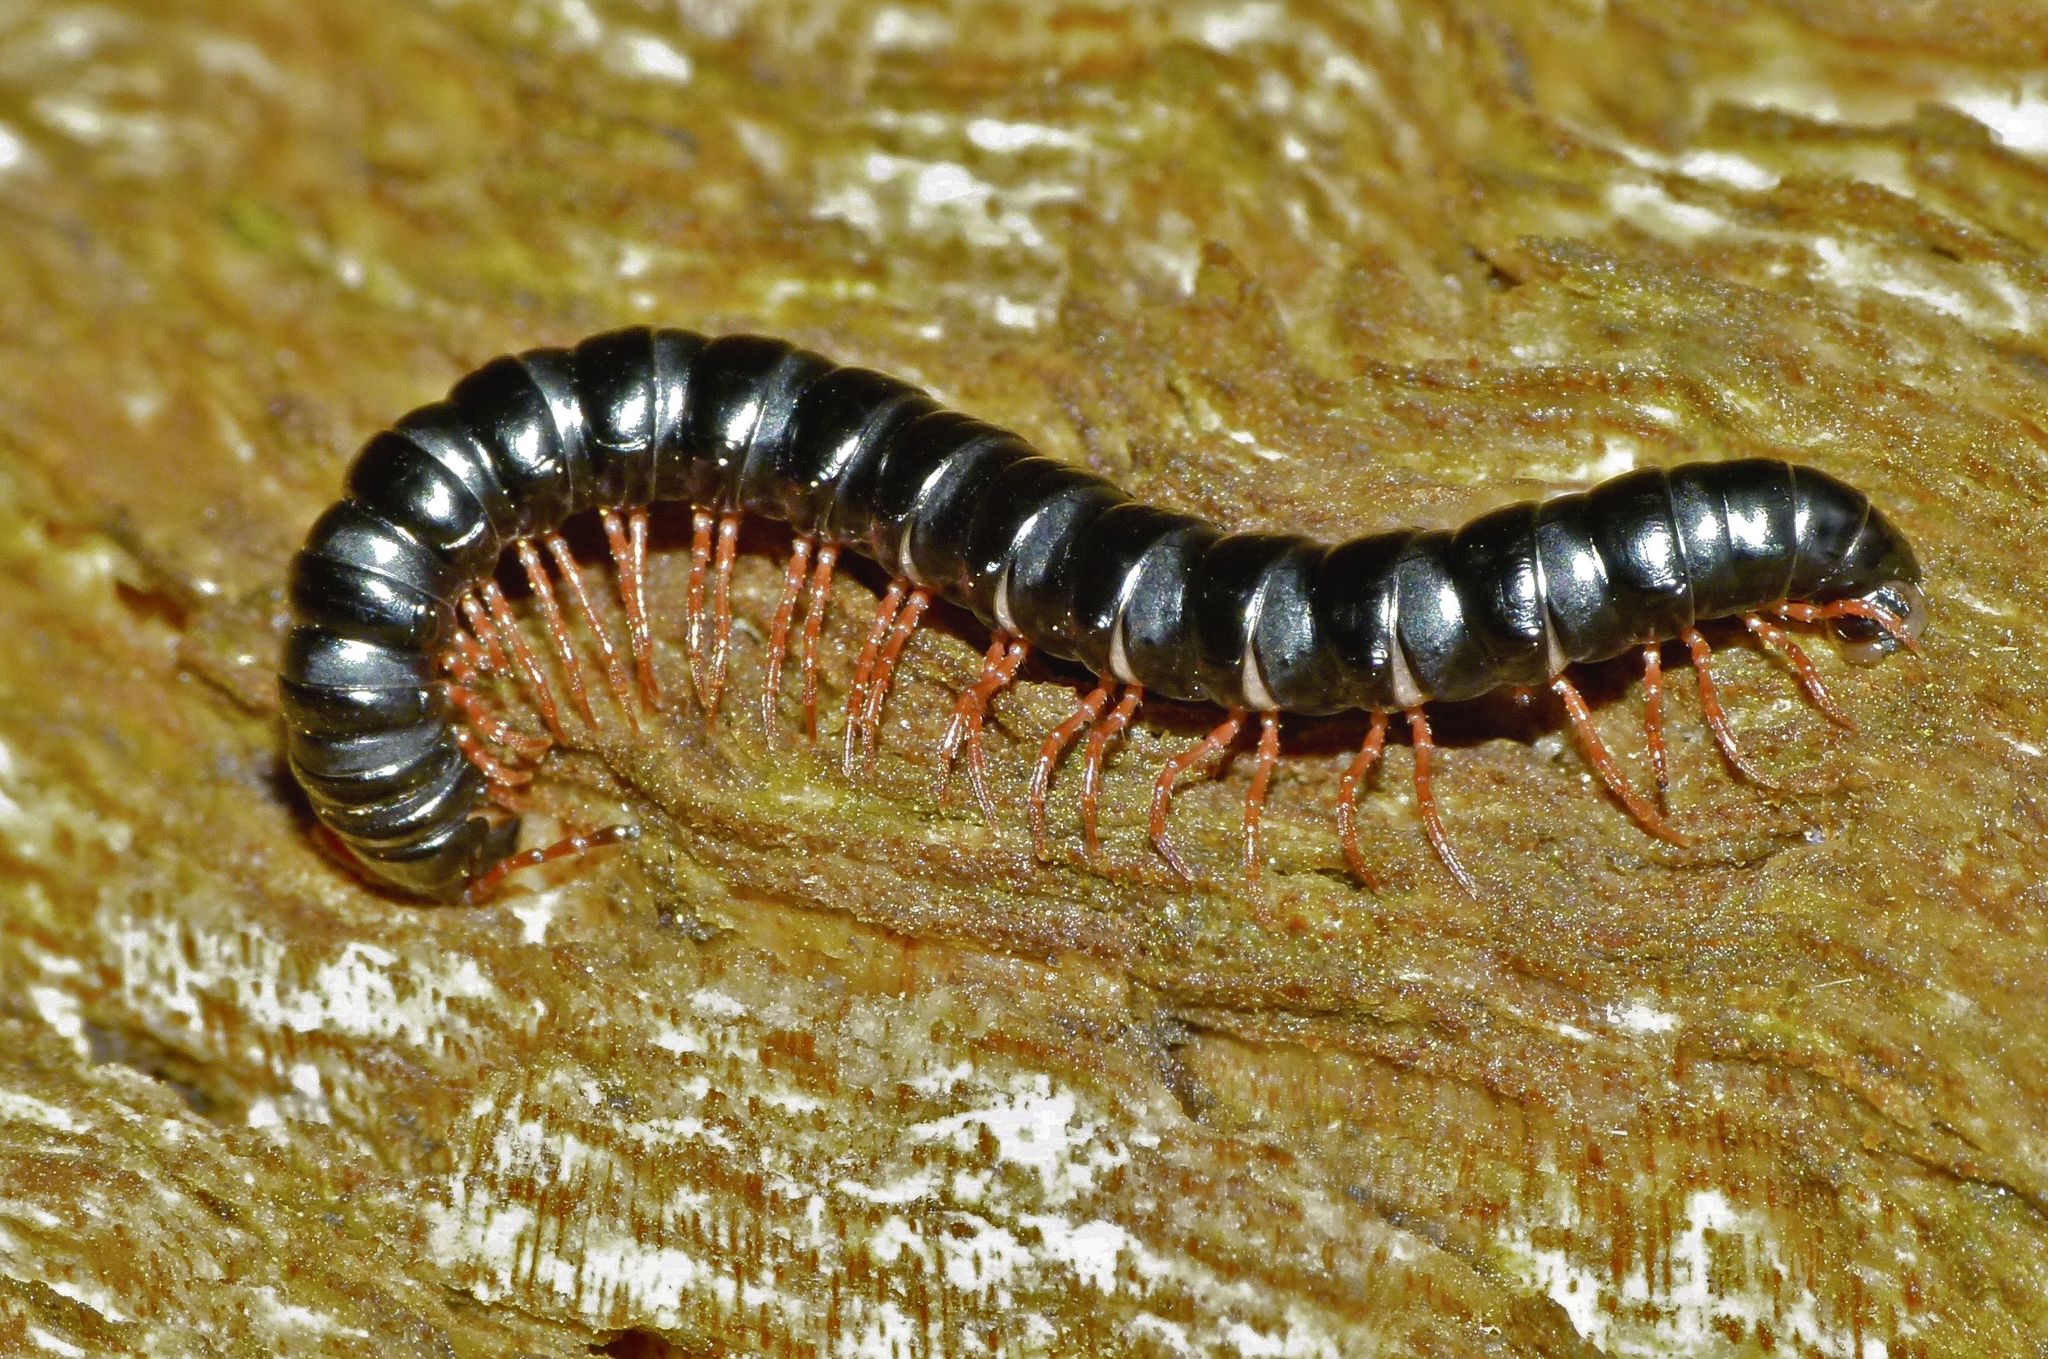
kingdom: Animalia
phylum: Arthropoda
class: Diplopoda
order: Polydesmida
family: Paradoxosomatidae
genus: Heterocladosoma
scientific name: Heterocladosoma
